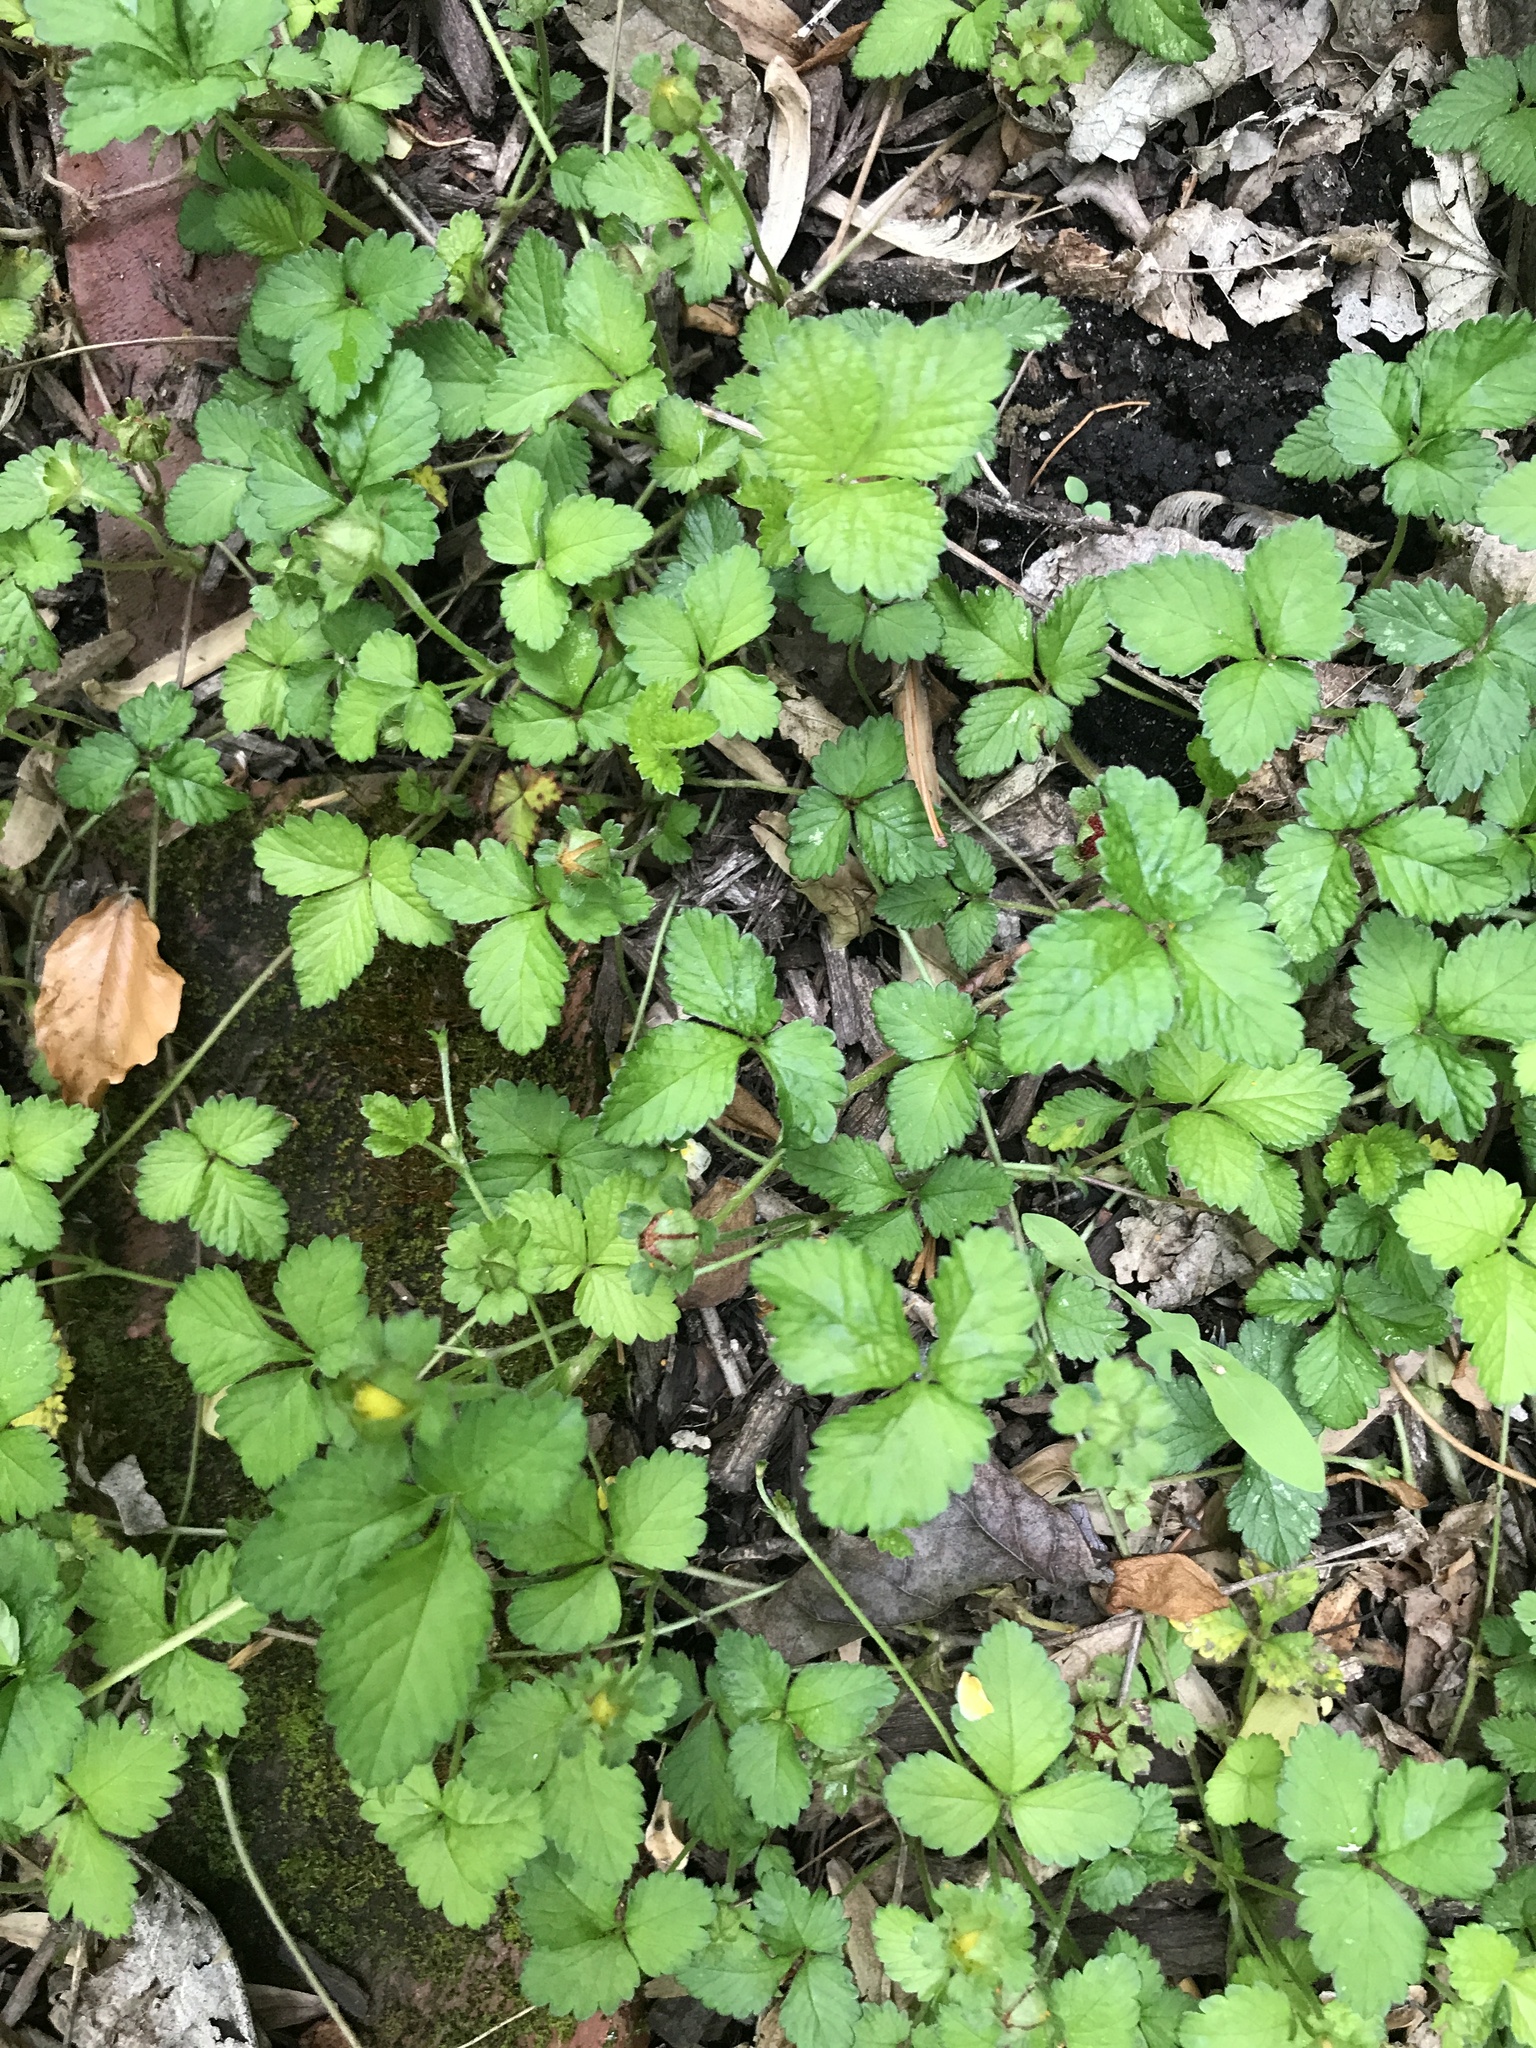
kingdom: Plantae
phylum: Tracheophyta
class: Magnoliopsida
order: Rosales
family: Rosaceae
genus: Potentilla
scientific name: Potentilla indica
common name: Yellow-flowered strawberry
